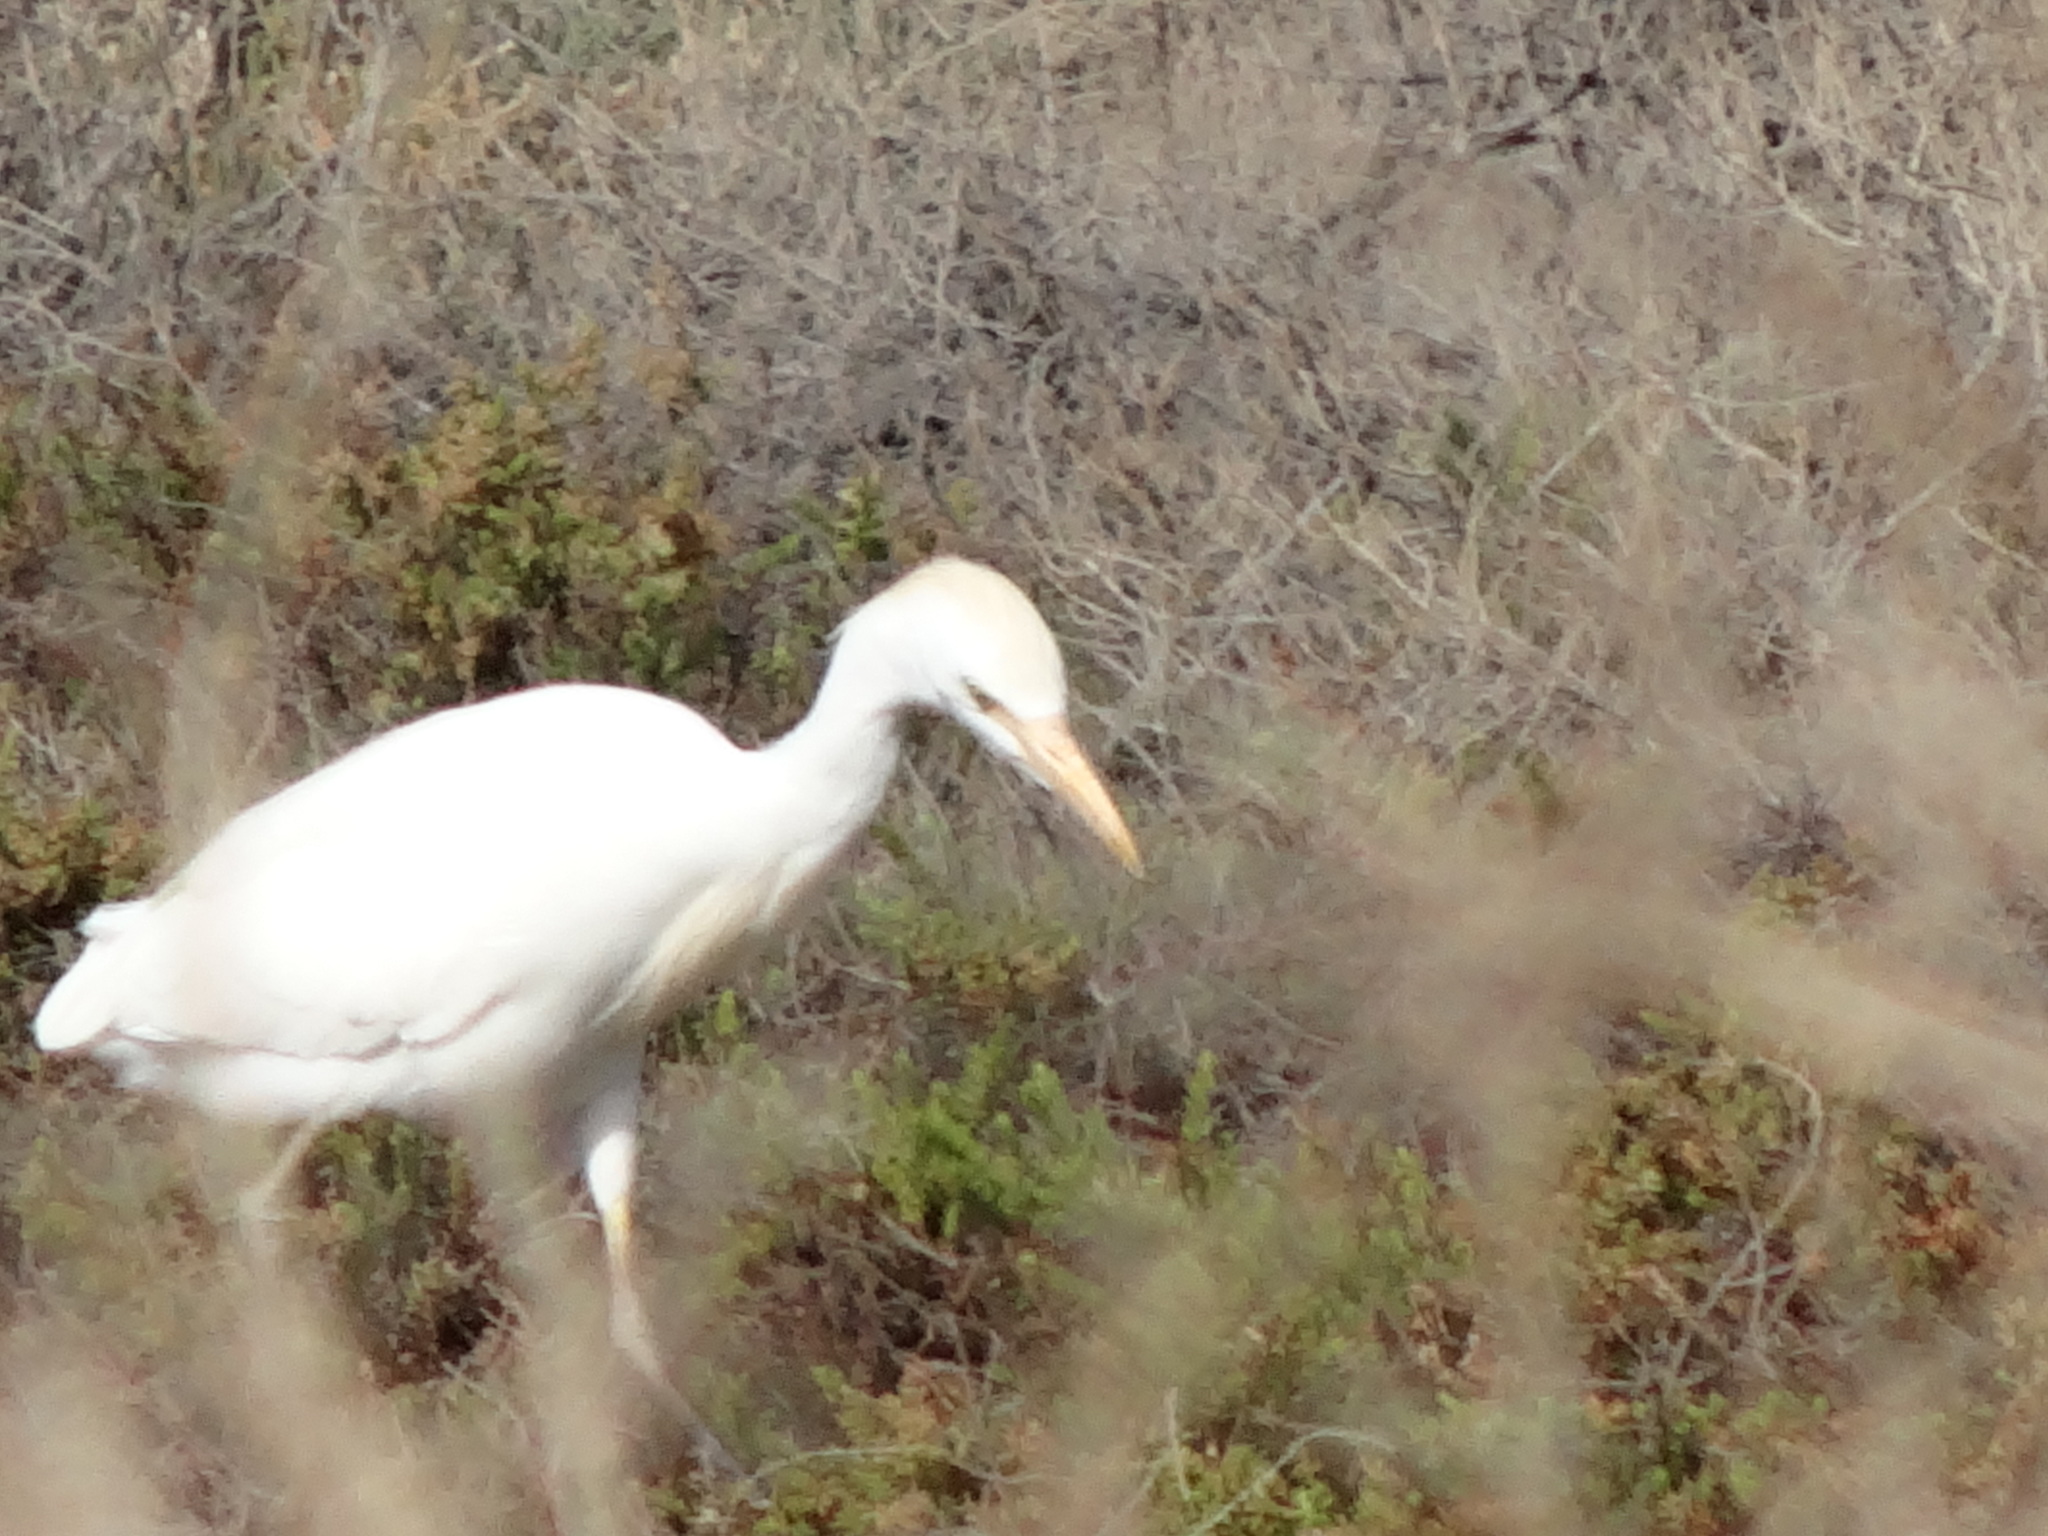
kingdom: Animalia
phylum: Chordata
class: Aves
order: Pelecaniformes
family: Ardeidae
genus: Bubulcus
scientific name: Bubulcus ibis
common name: Cattle egret
